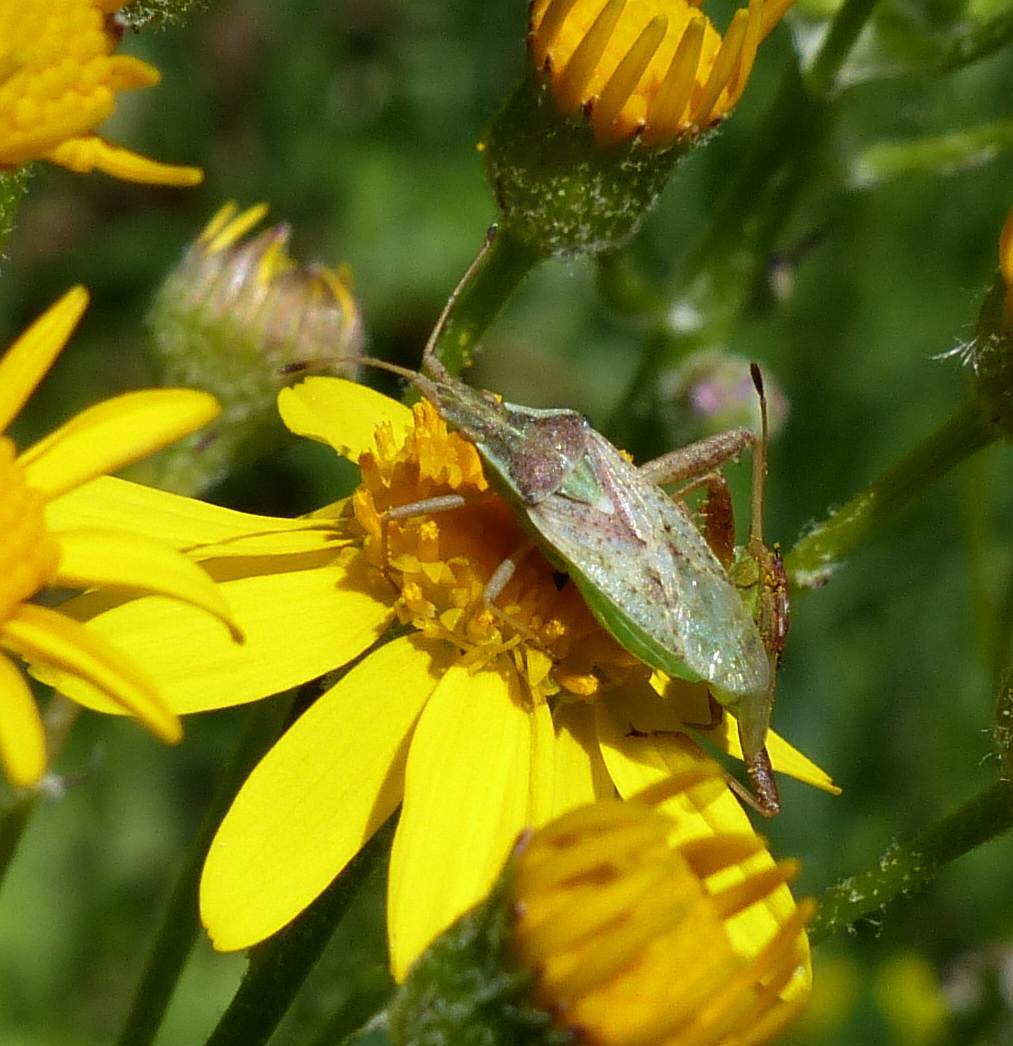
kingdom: Animalia
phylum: Arthropoda
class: Insecta
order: Hemiptera
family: Rhopalidae
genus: Harmostes
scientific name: Harmostes reflexulus
